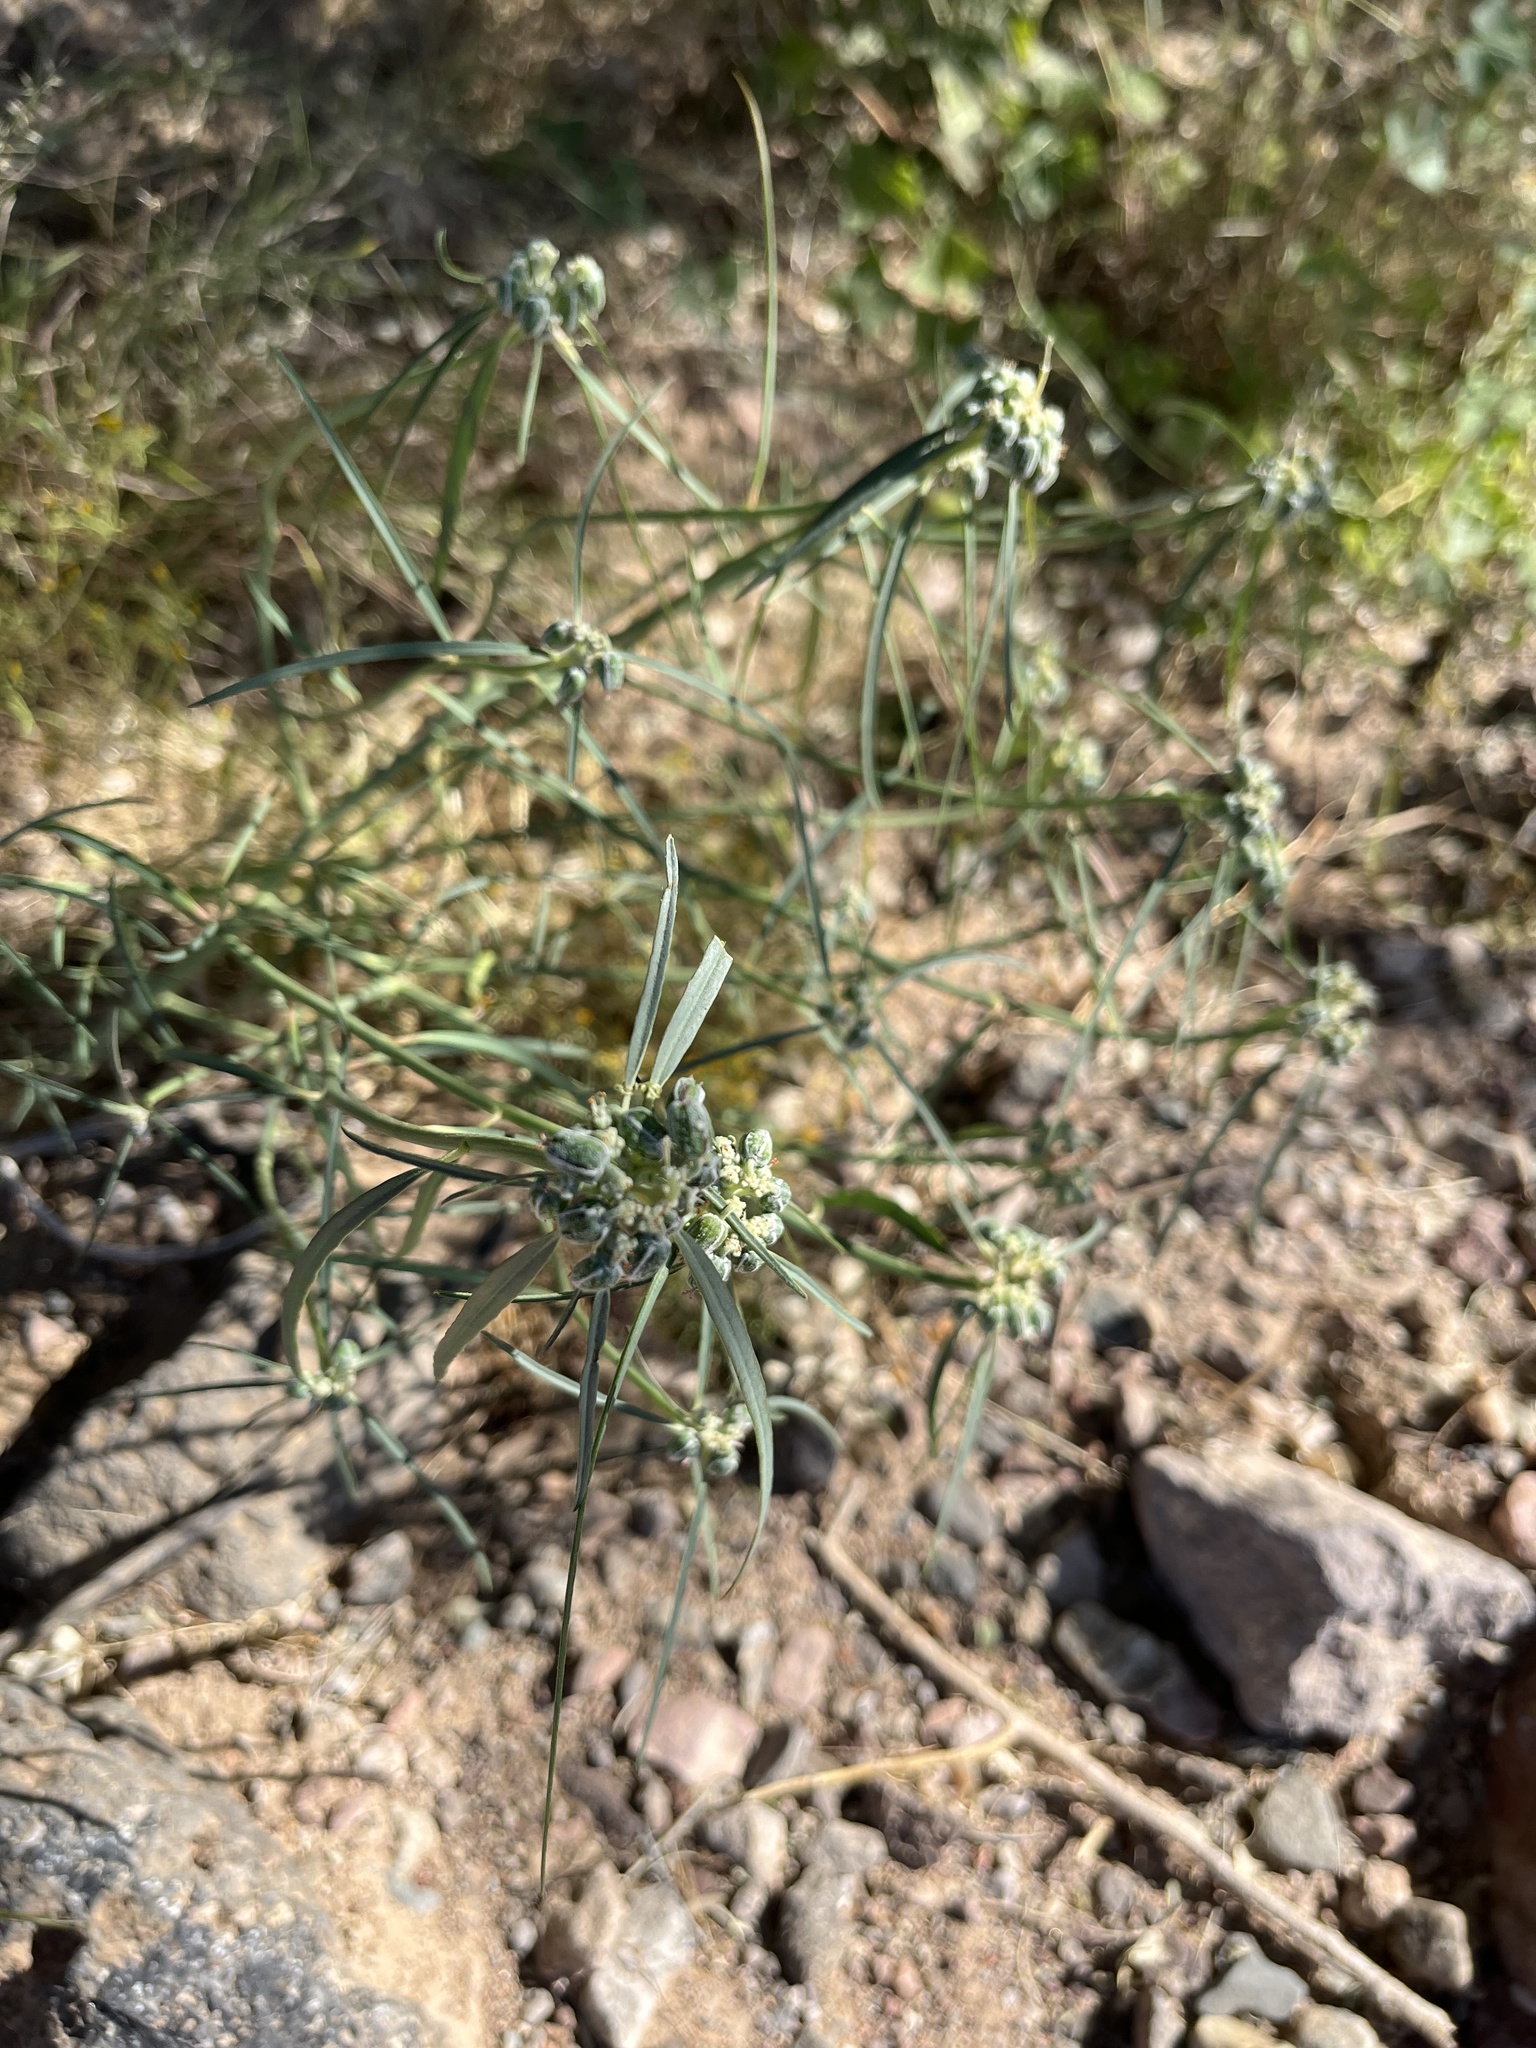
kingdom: Plantae
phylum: Tracheophyta
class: Magnoliopsida
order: Malpighiales
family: Euphorbiaceae
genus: Euphorbia
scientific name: Euphorbia eriantha
